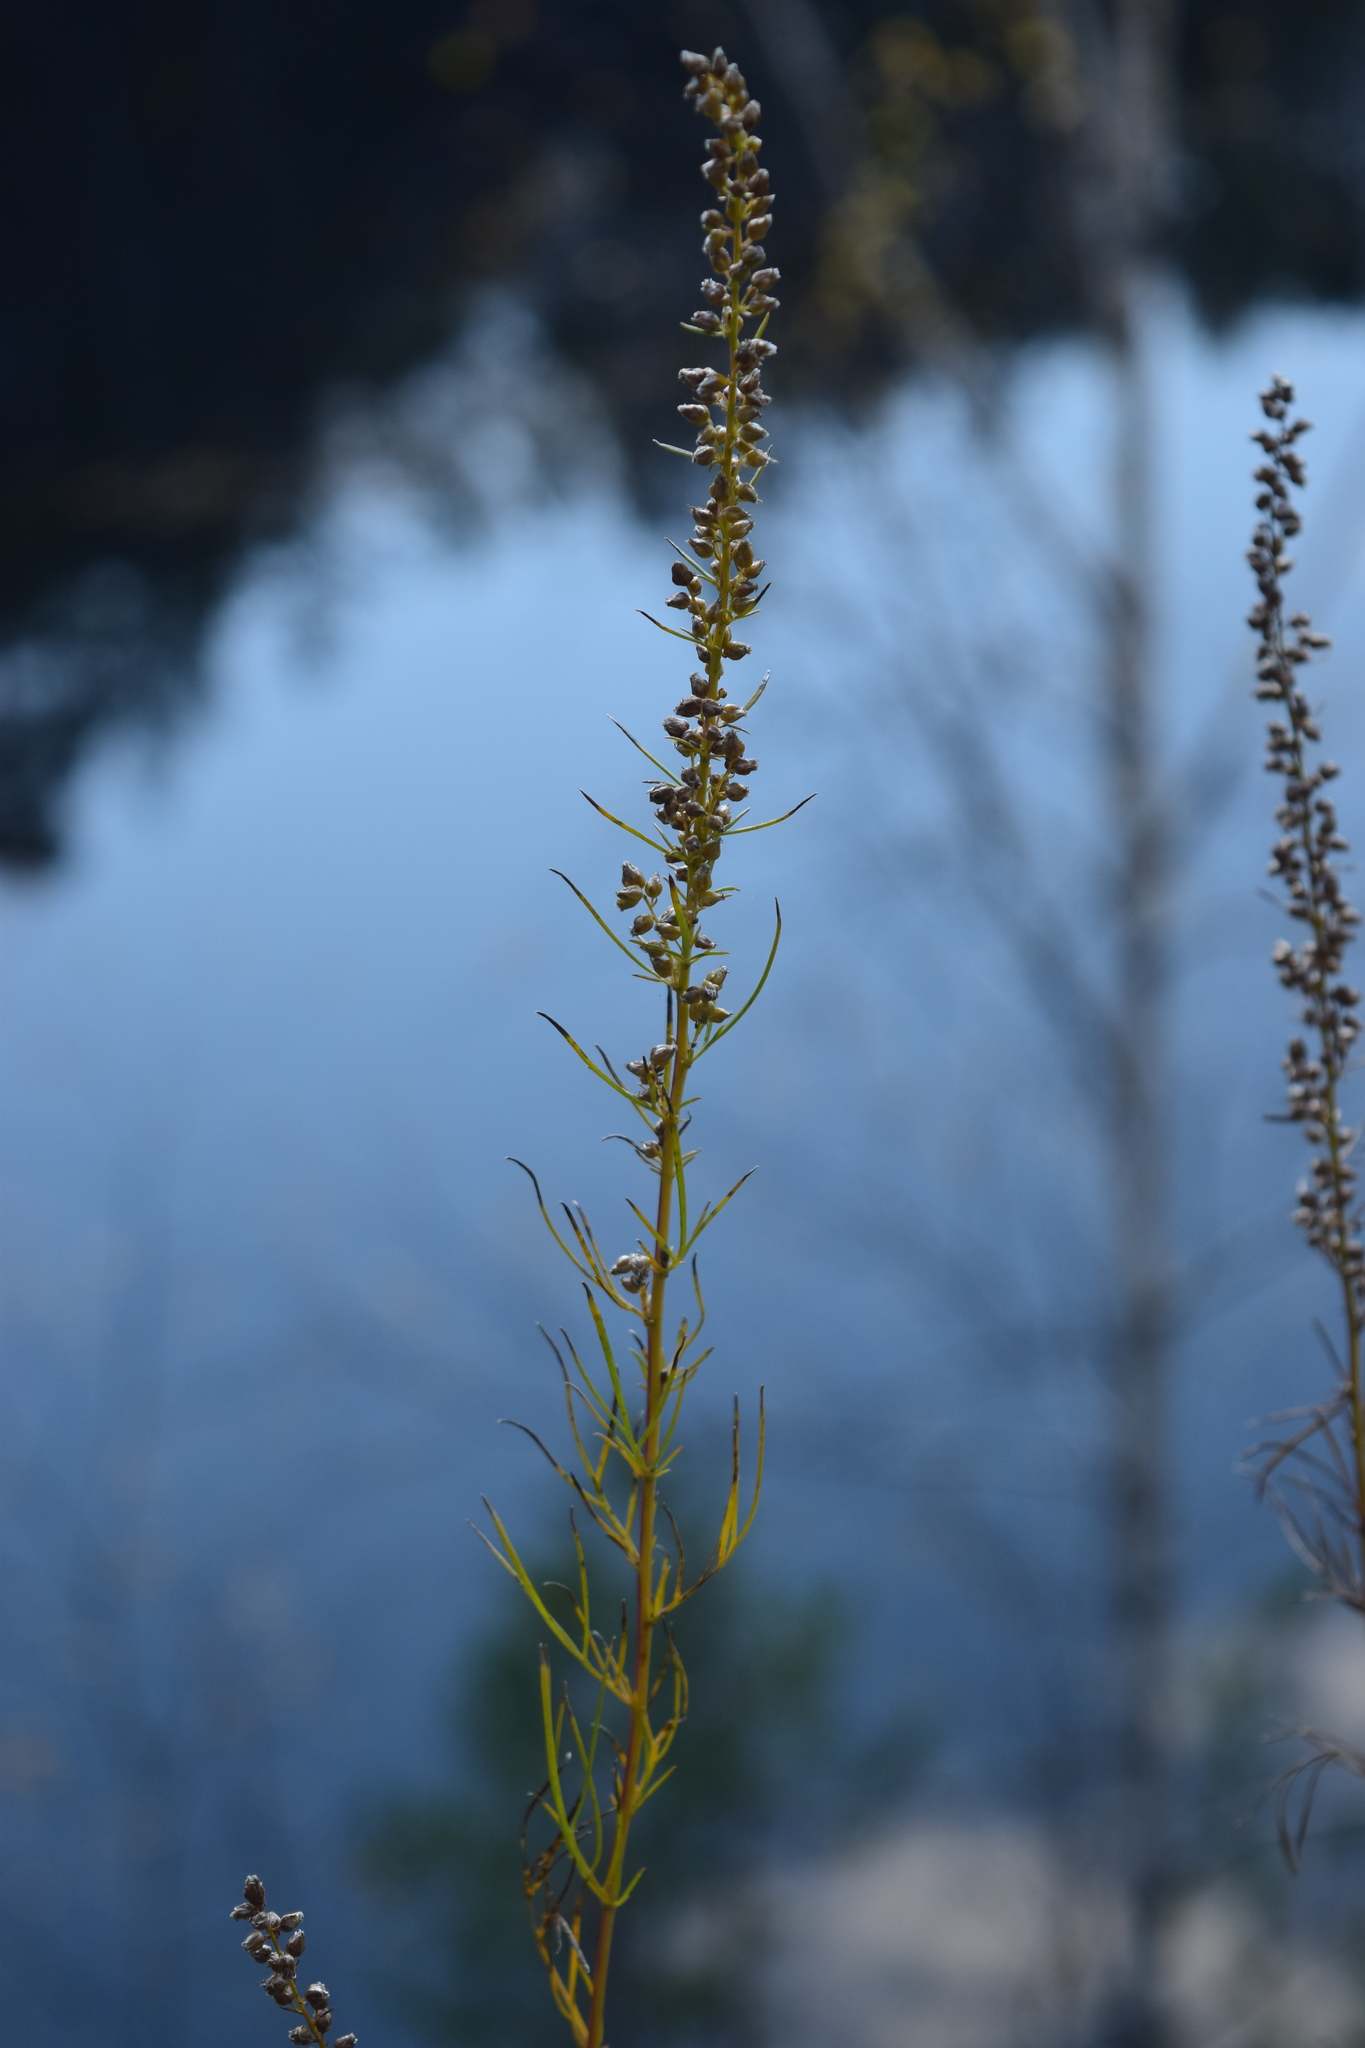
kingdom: Plantae
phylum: Tracheophyta
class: Magnoliopsida
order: Asterales
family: Asteraceae
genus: Artemisia
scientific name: Artemisia pubescens
